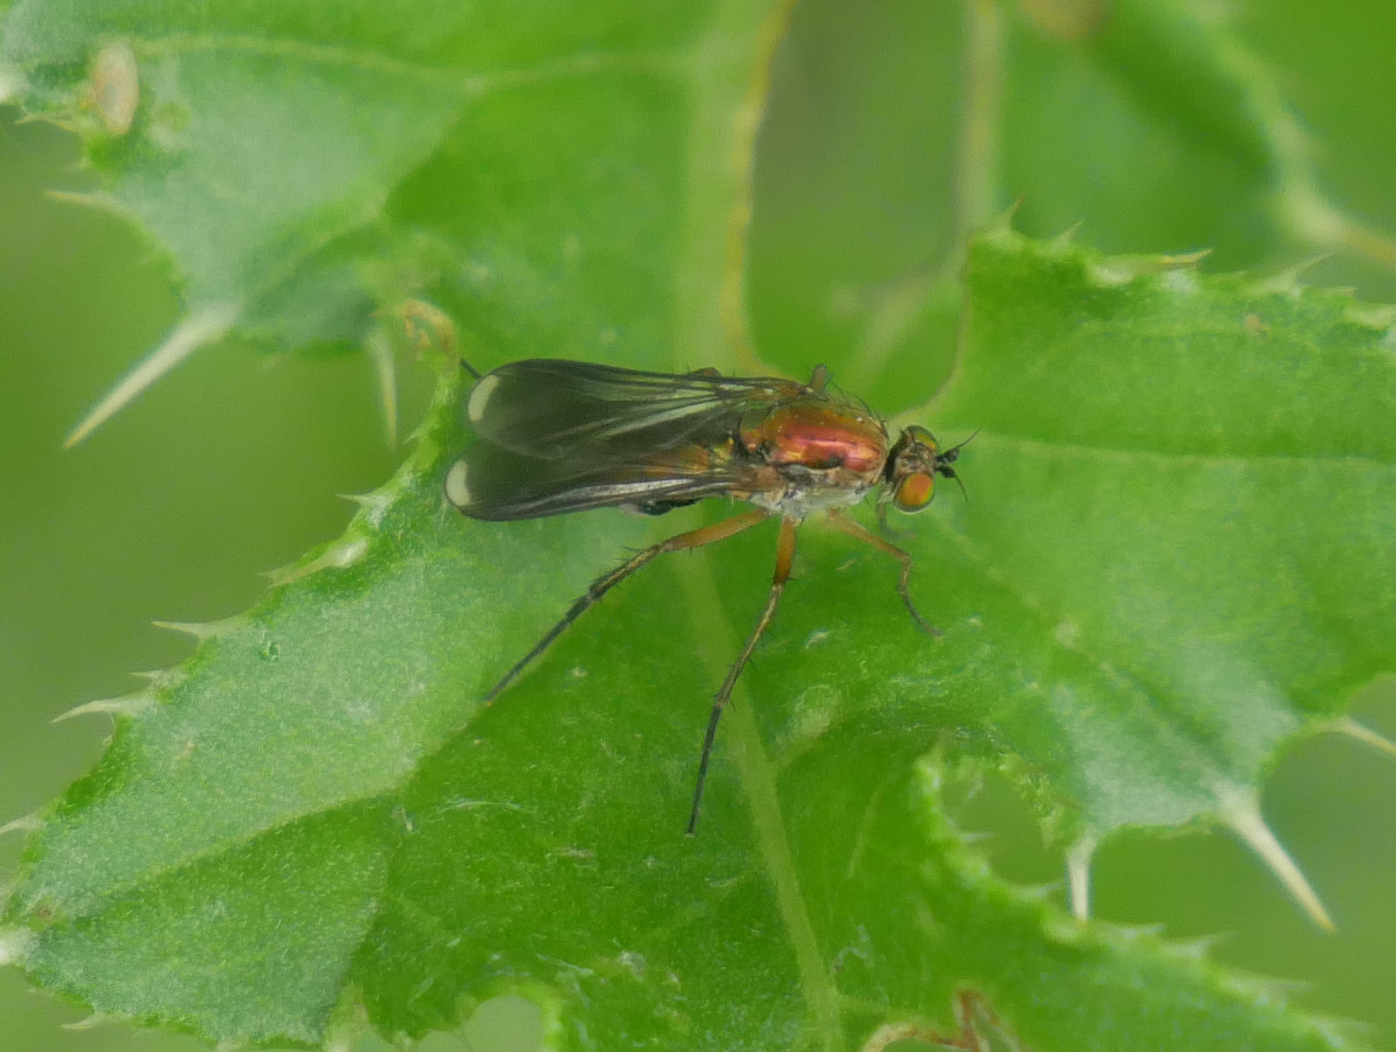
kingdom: Animalia
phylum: Arthropoda
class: Insecta
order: Diptera
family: Dolichopodidae
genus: Poecilobothrus
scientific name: Poecilobothrus nobilitatus
